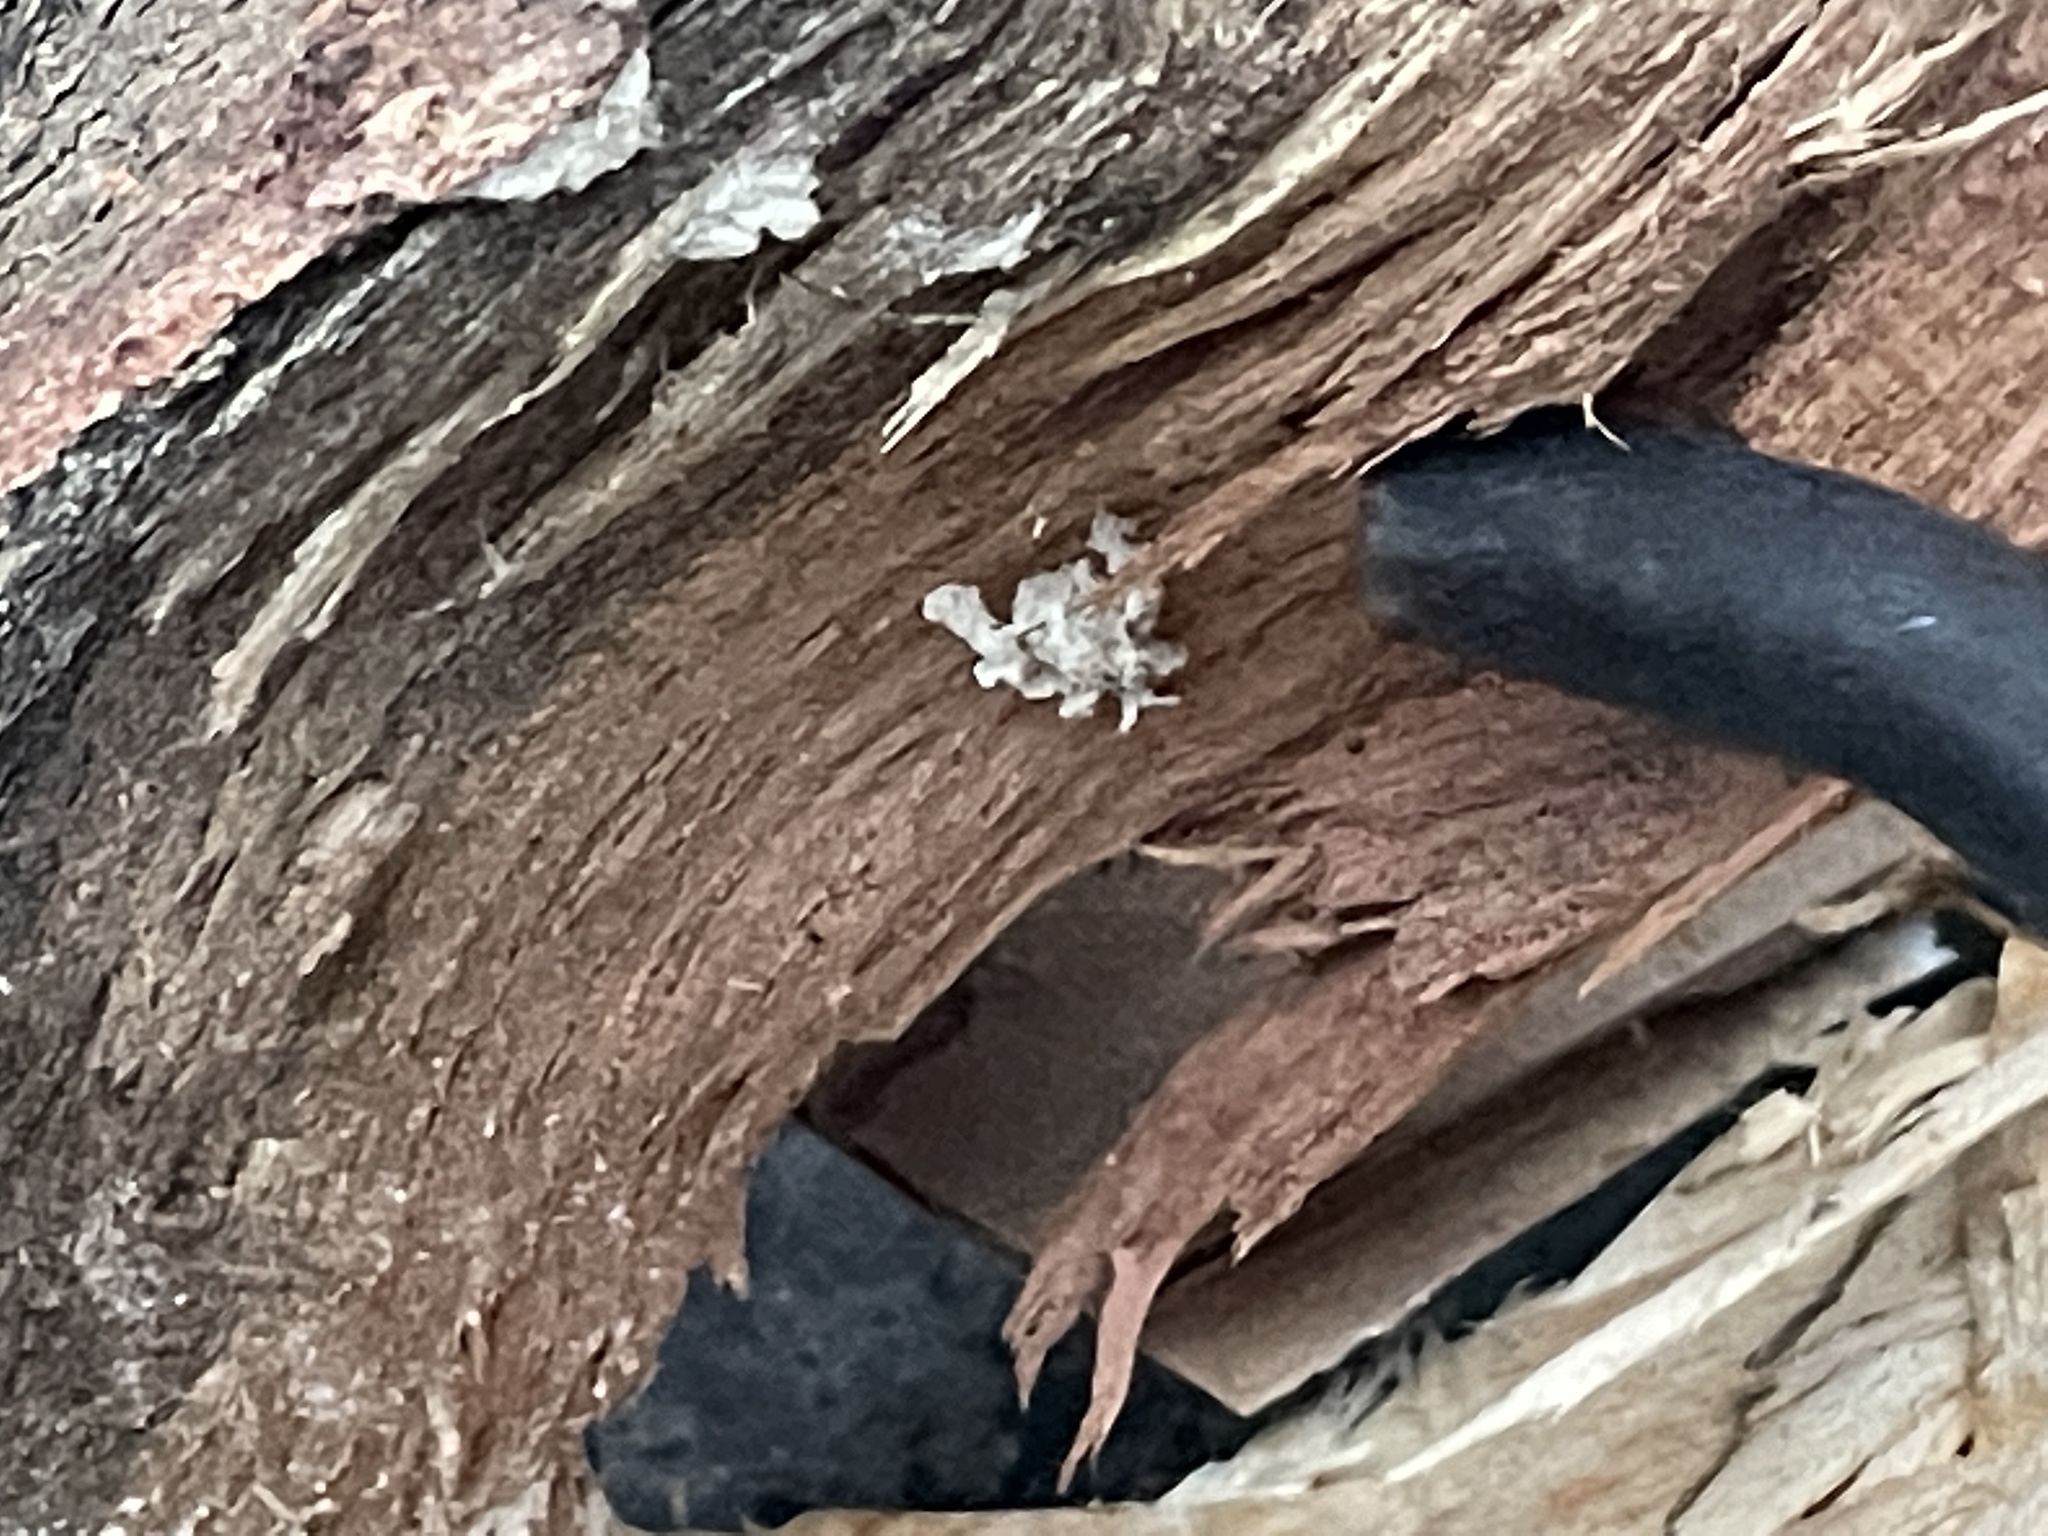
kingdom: Animalia
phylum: Arthropoda
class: Insecta
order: Hemiptera
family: Reduviidae
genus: Reduvius
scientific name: Reduvius personatus
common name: Masked hunter
